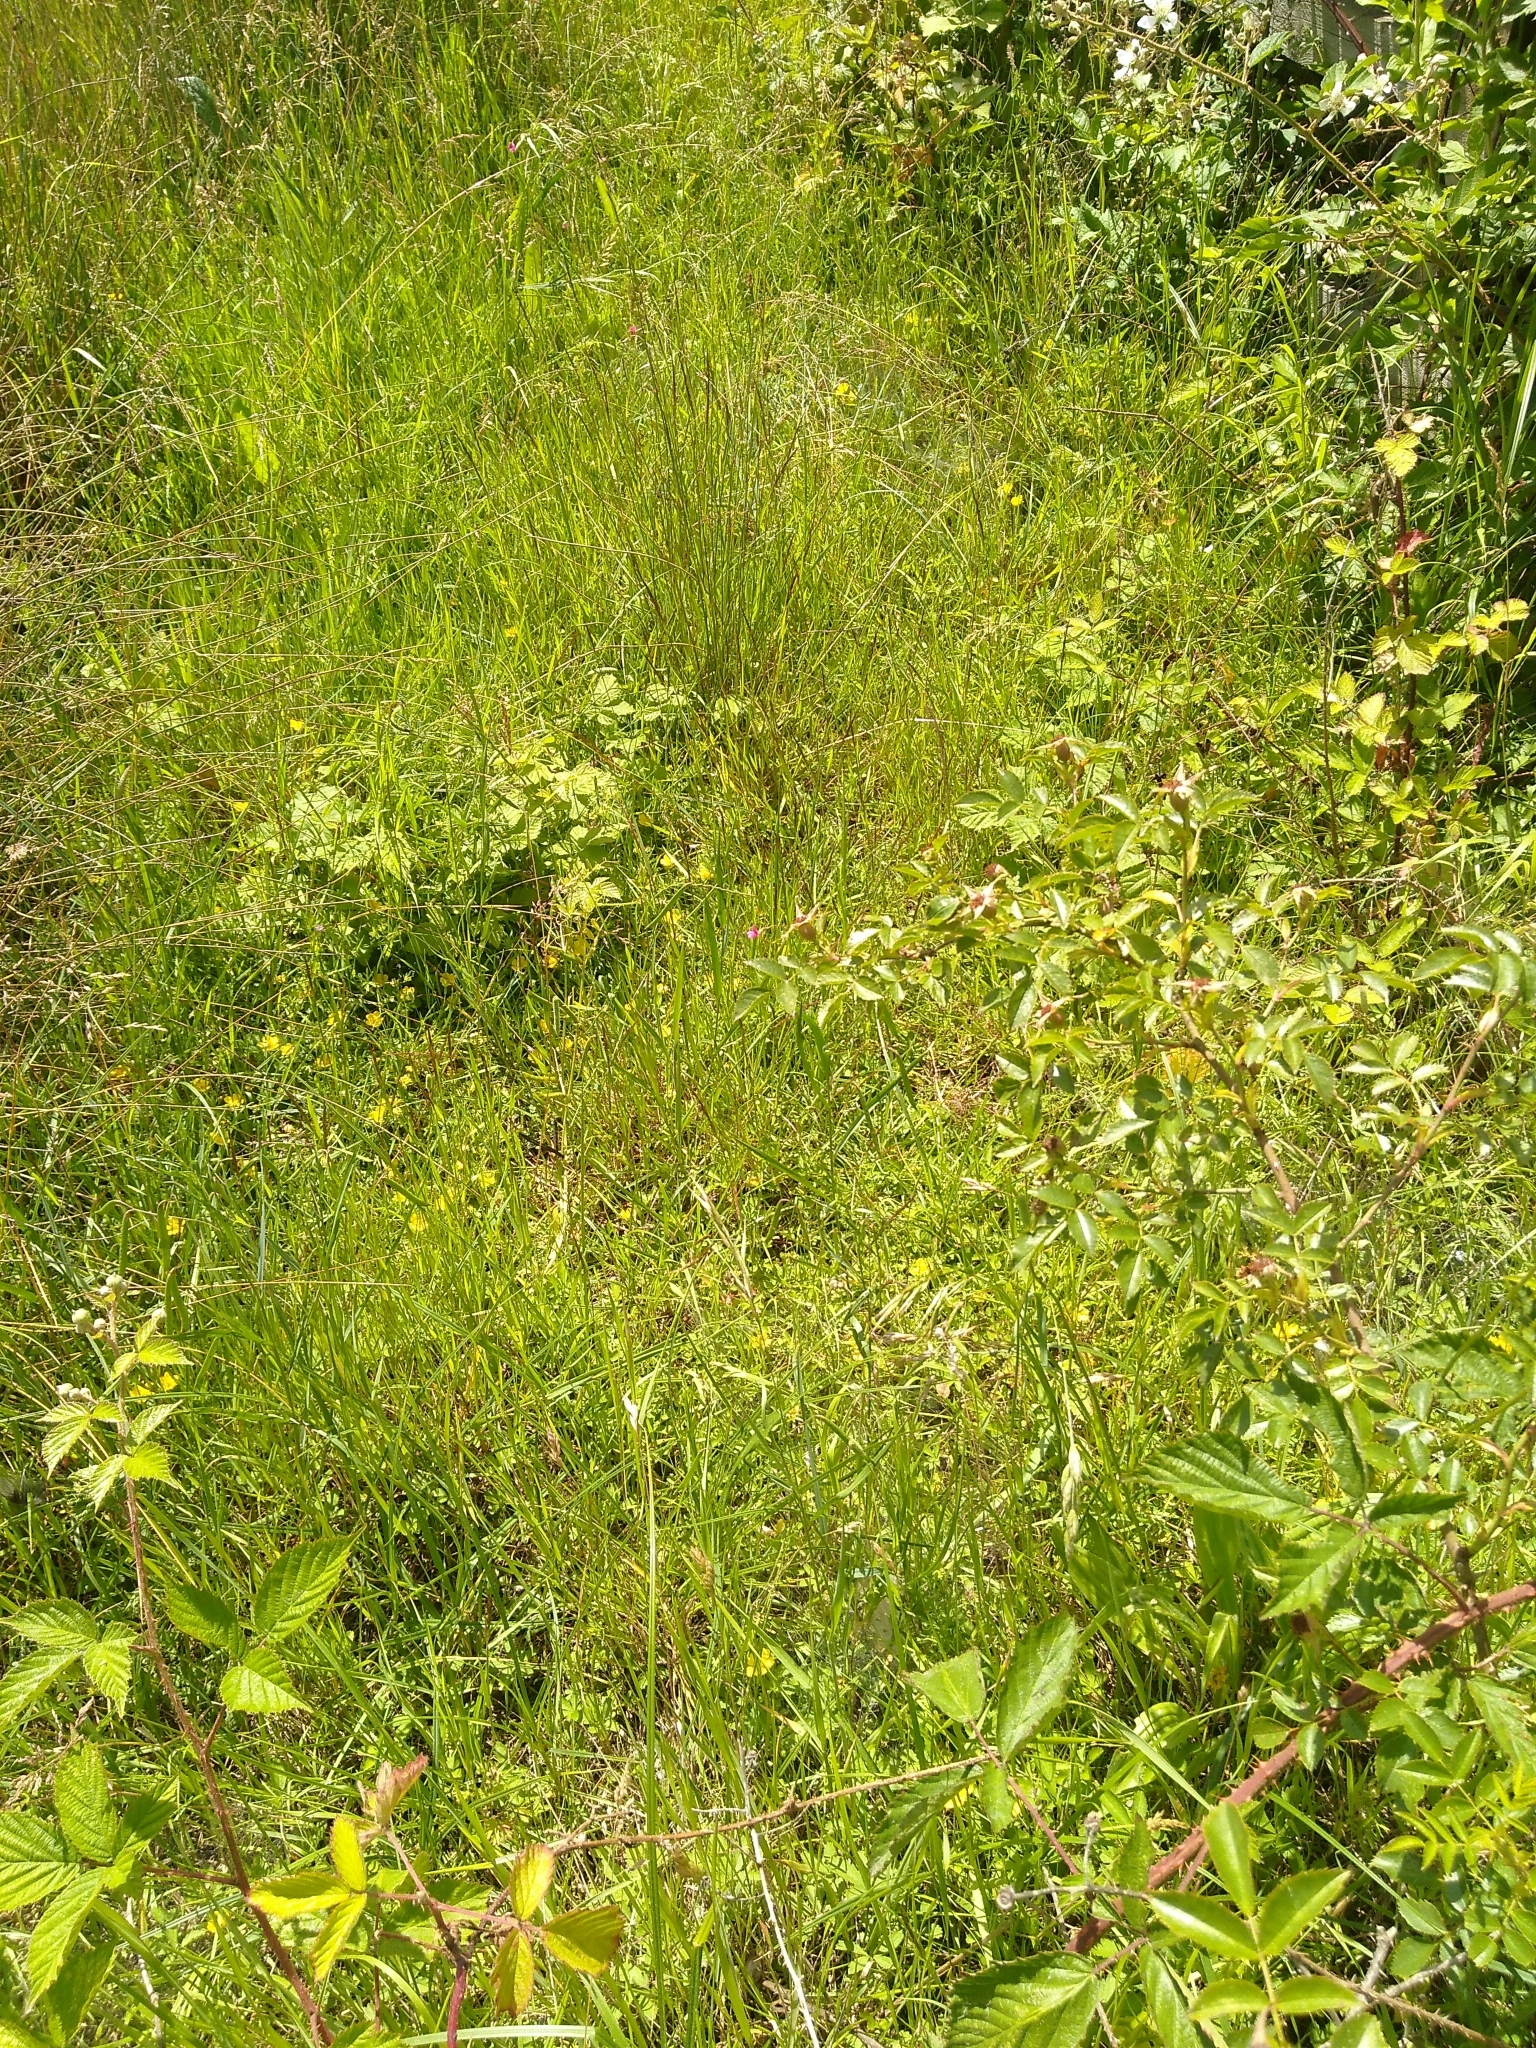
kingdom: Plantae
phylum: Tracheophyta
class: Magnoliopsida
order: Fabales
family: Fabaceae
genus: Lathyrus
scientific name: Lathyrus nissolia
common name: Grass vetchling
